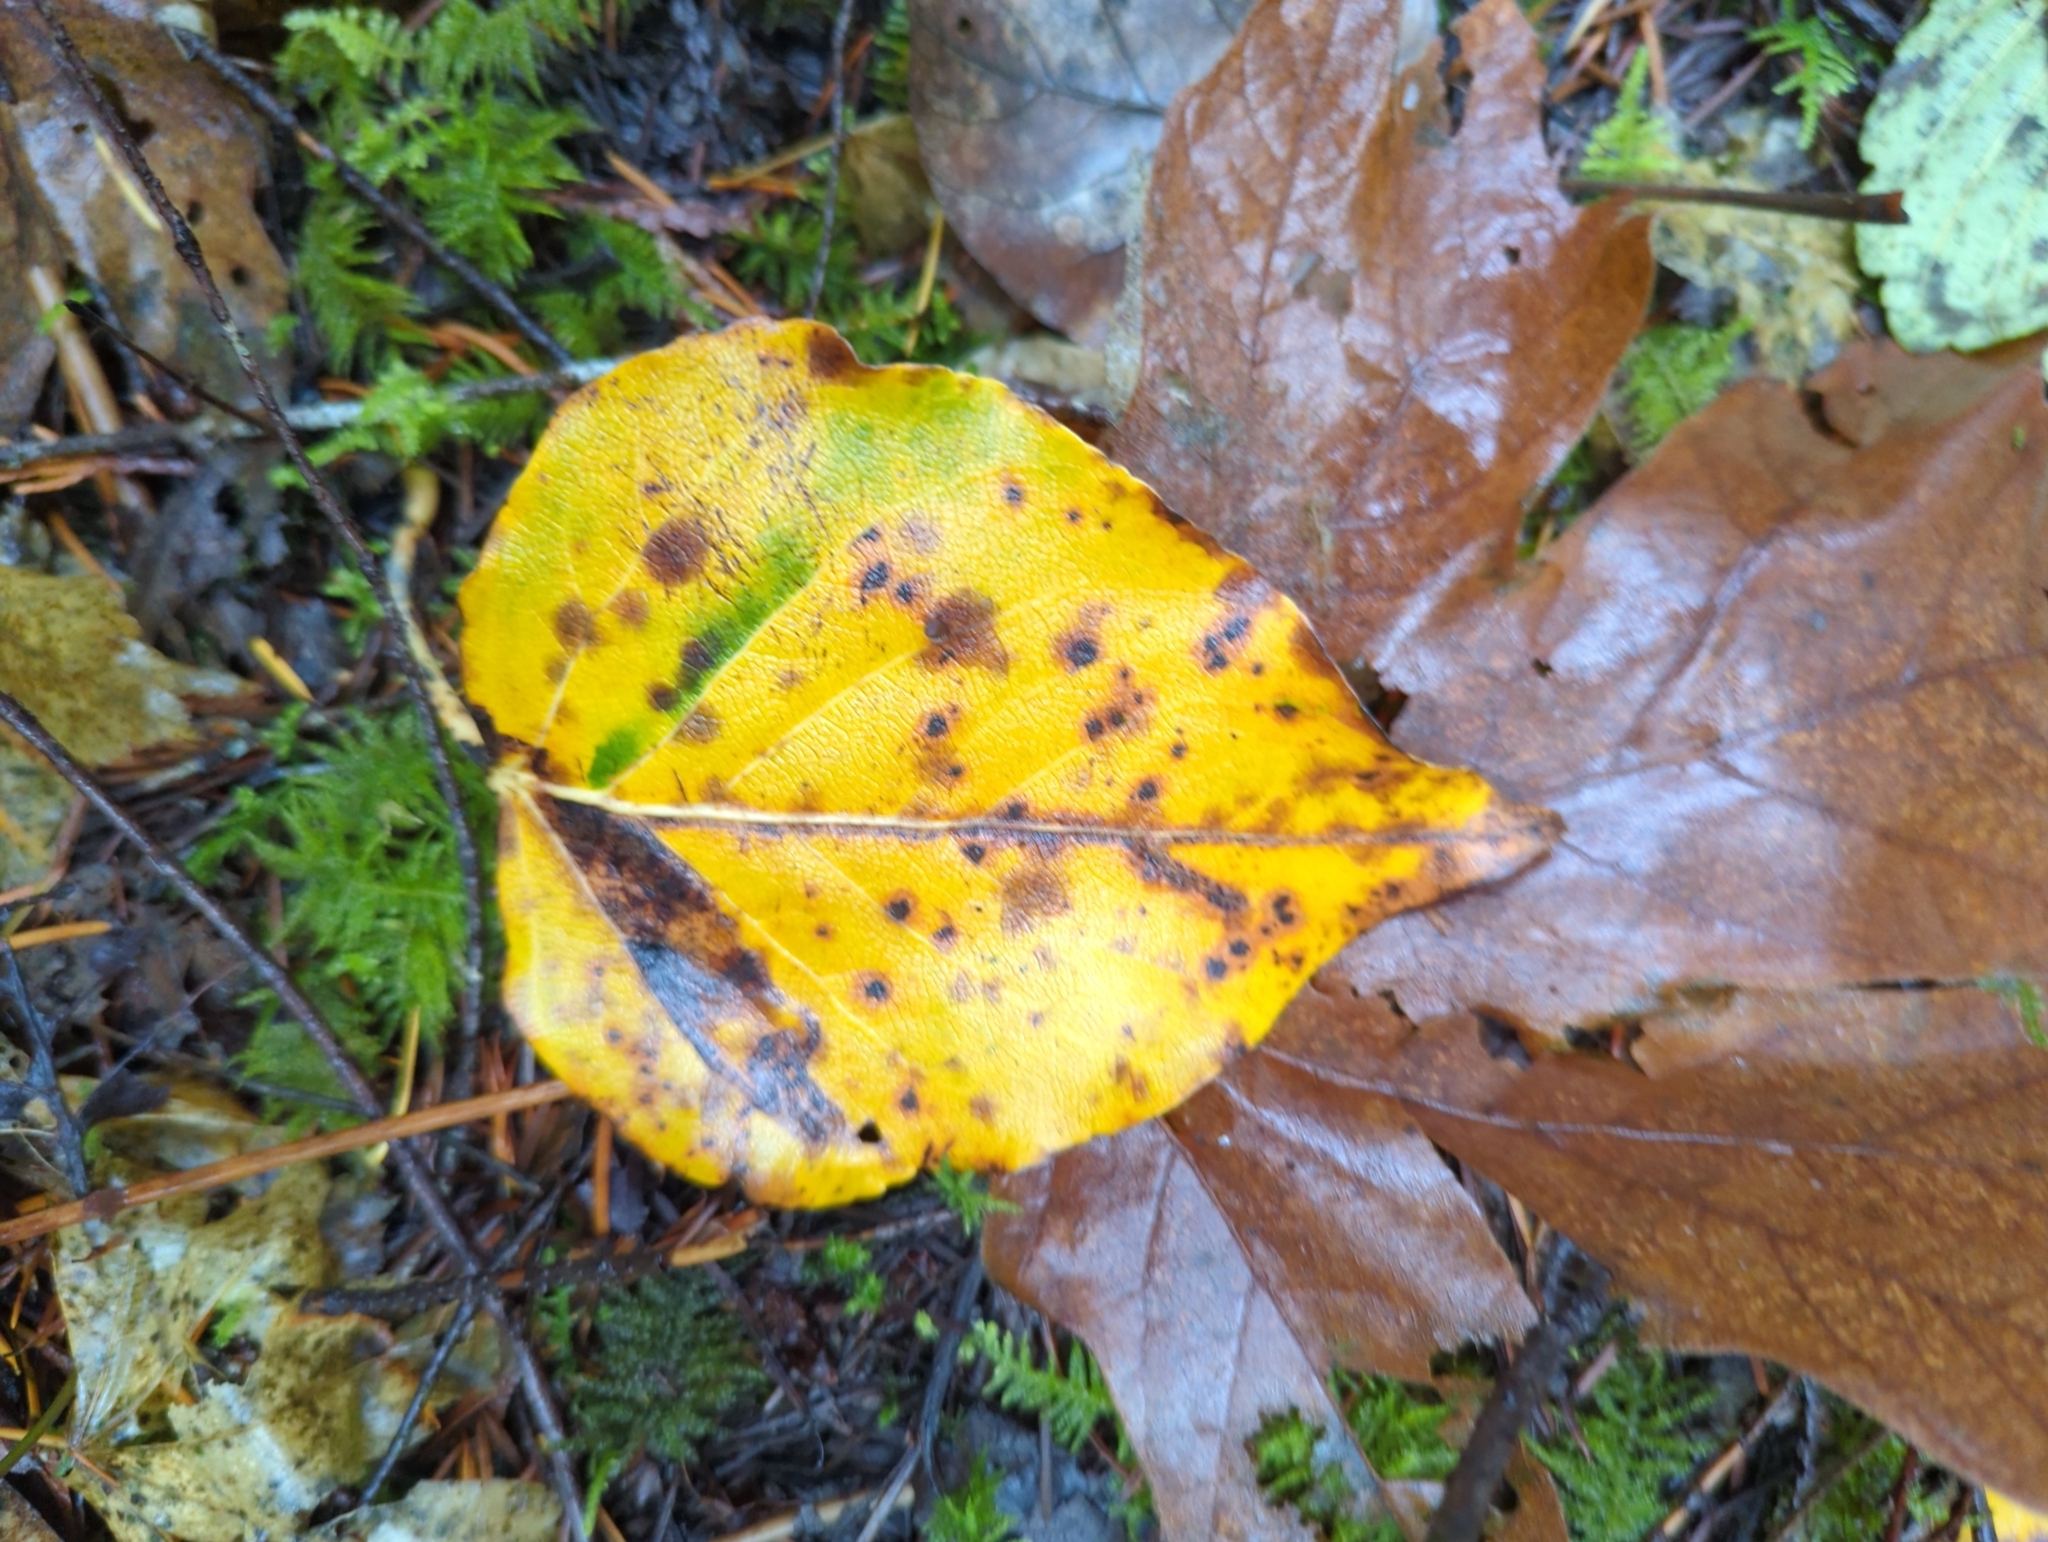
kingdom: Plantae
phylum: Tracheophyta
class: Magnoliopsida
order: Malpighiales
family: Salicaceae
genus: Populus
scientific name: Populus trichocarpa
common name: Black cottonwood
